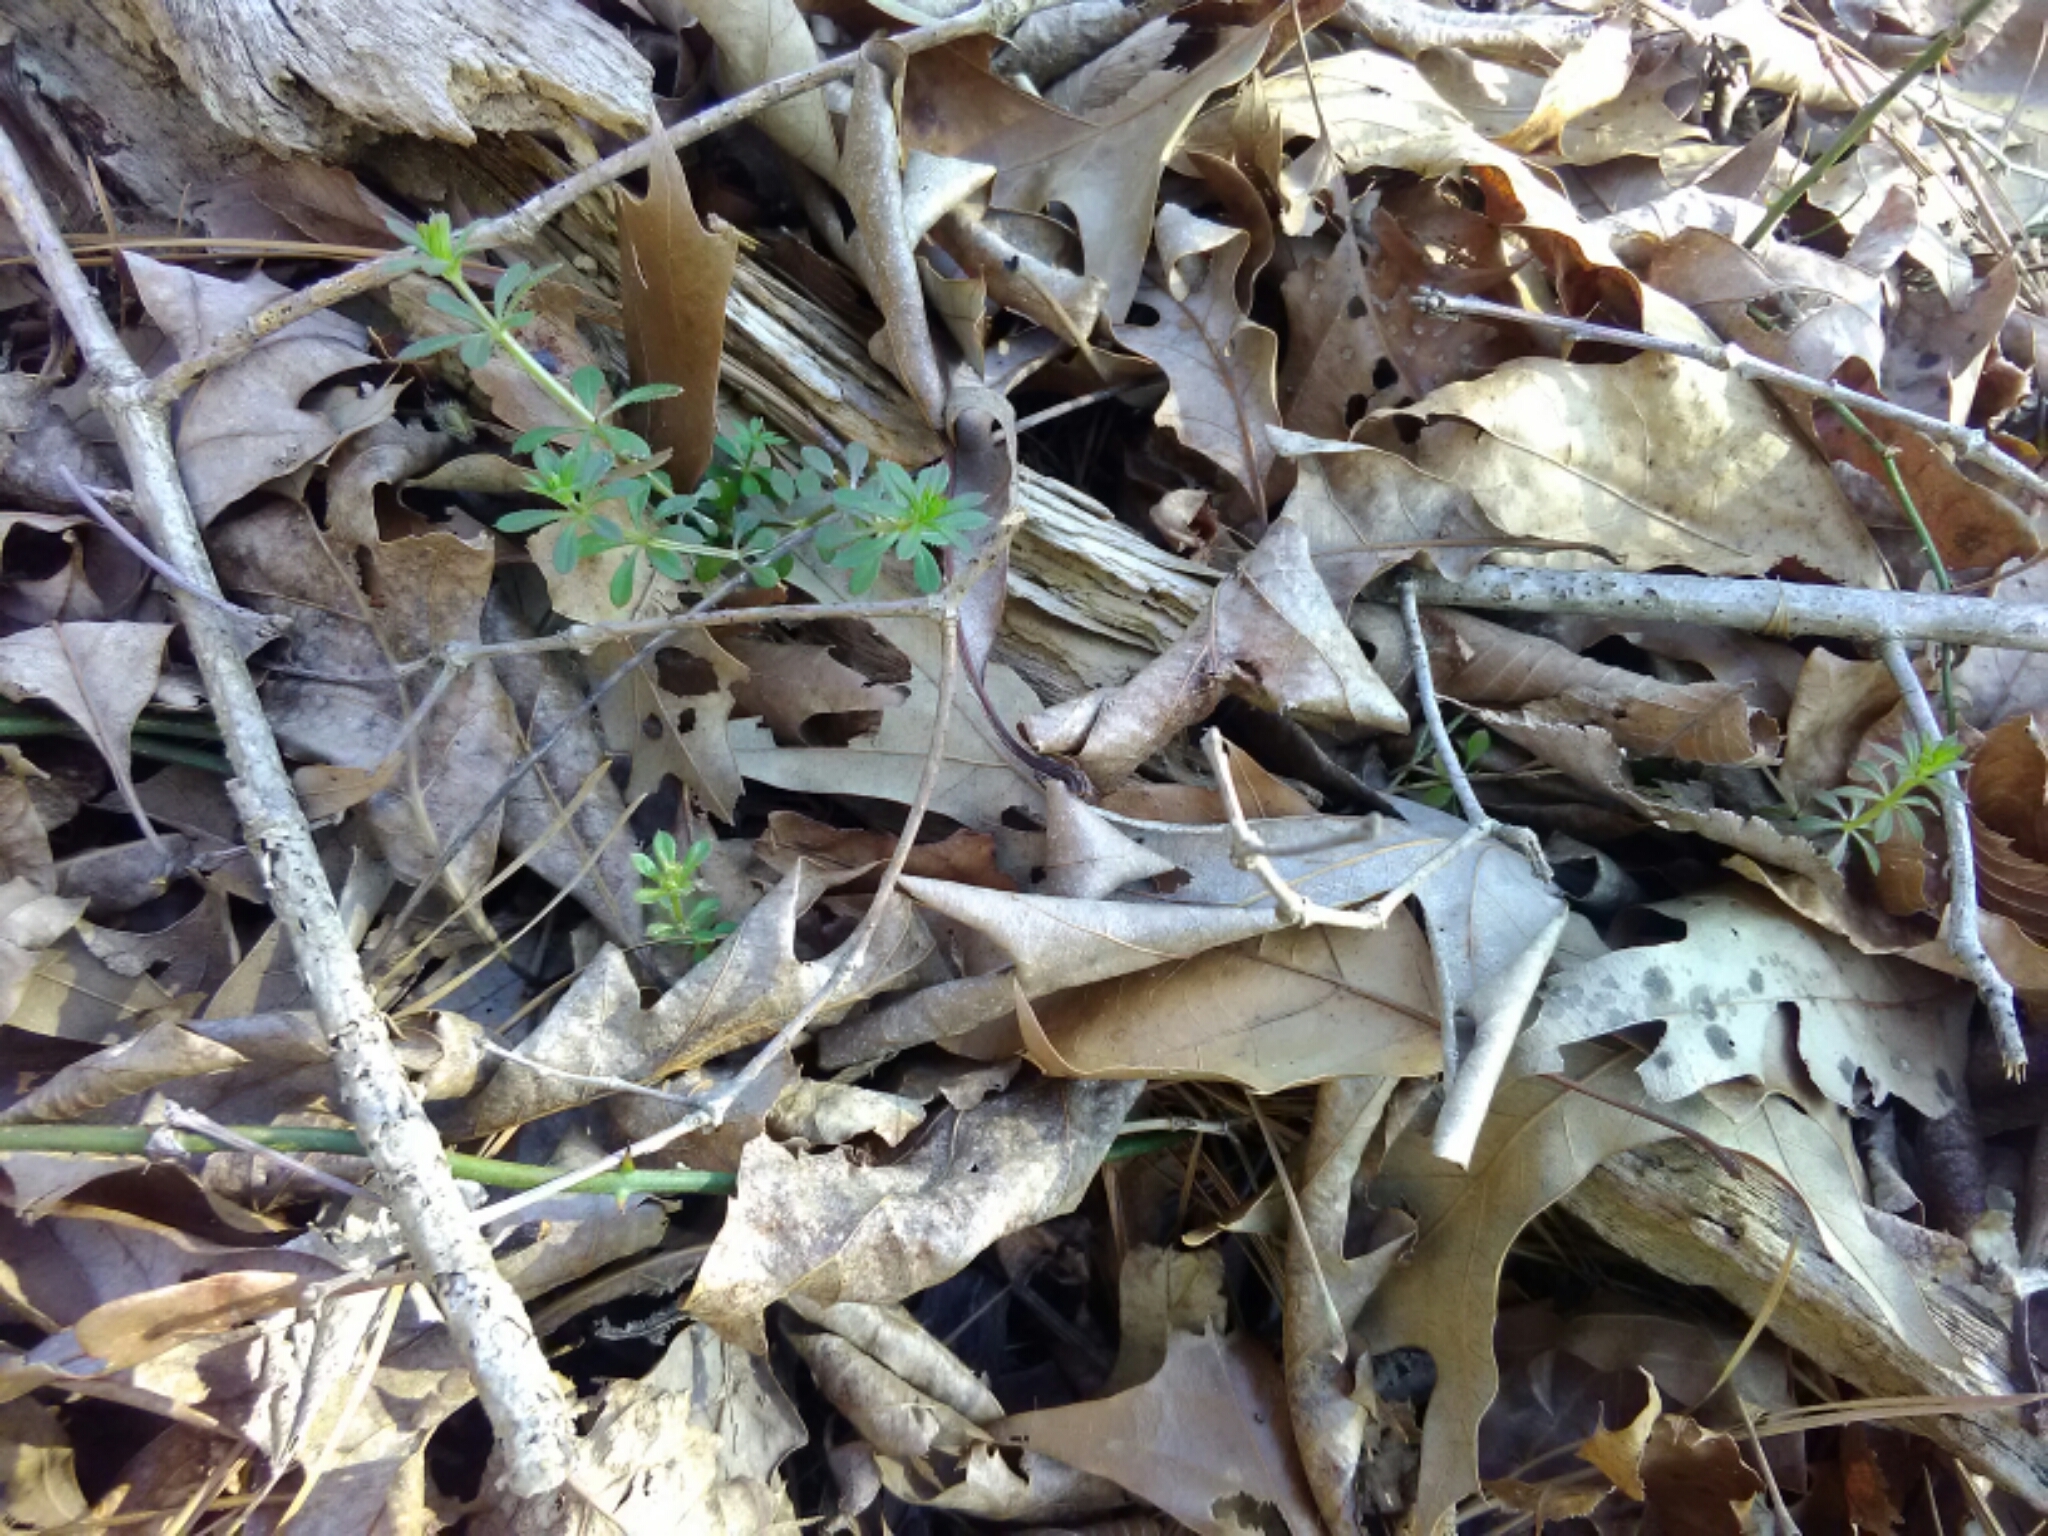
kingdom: Plantae
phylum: Tracheophyta
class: Magnoliopsida
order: Gentianales
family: Rubiaceae
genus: Galium
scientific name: Galium aparine
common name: Cleavers
